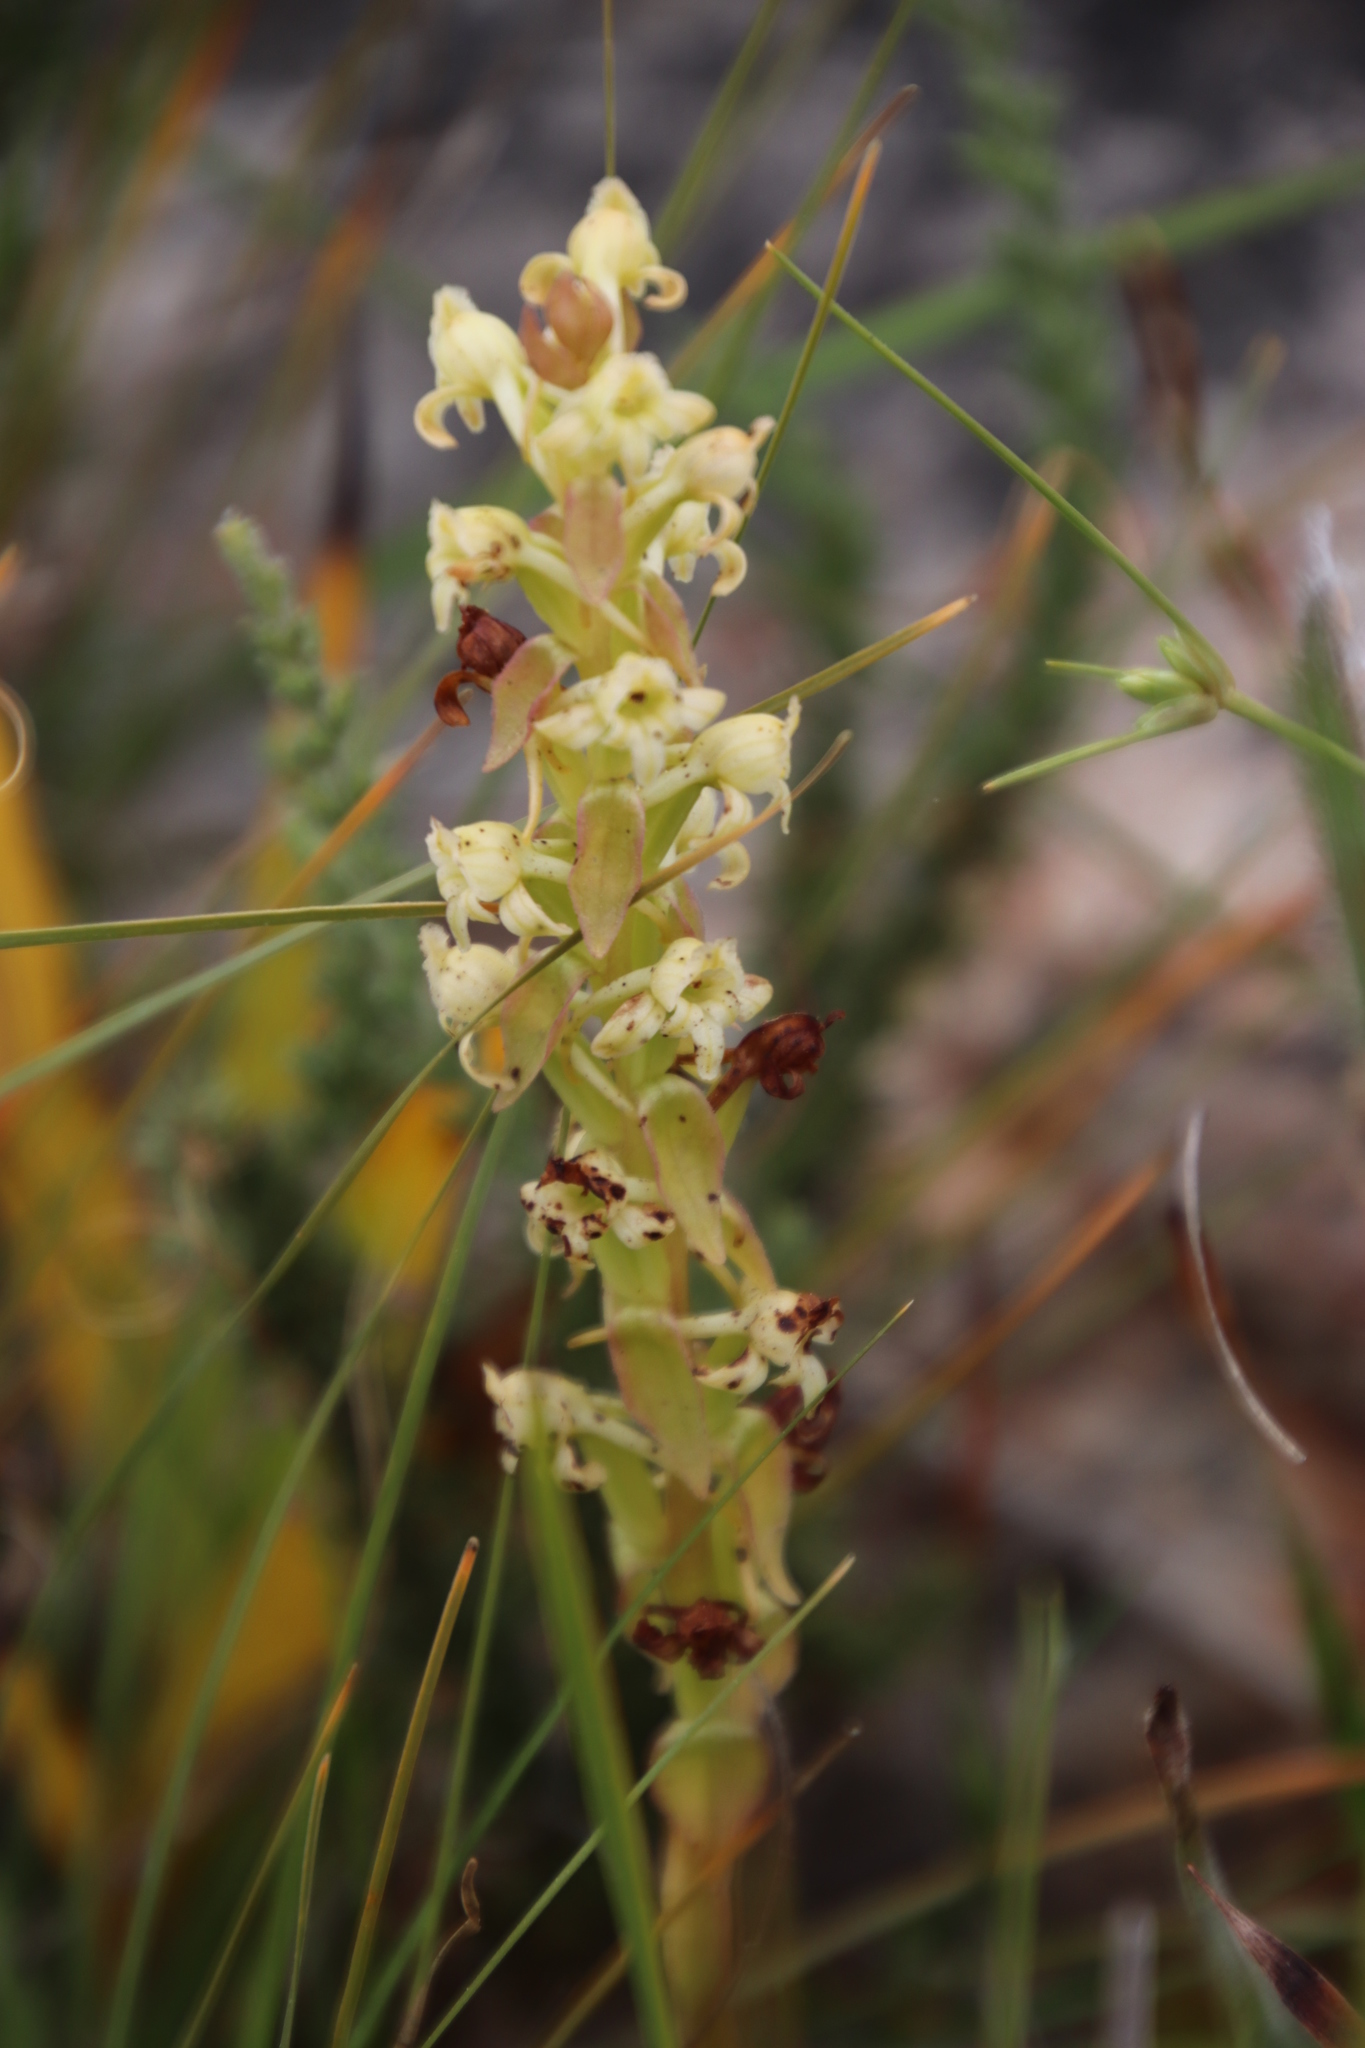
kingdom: Plantae
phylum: Tracheophyta
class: Liliopsida
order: Asparagales
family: Orchidaceae
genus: Satyrium
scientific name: Satyrium humile
